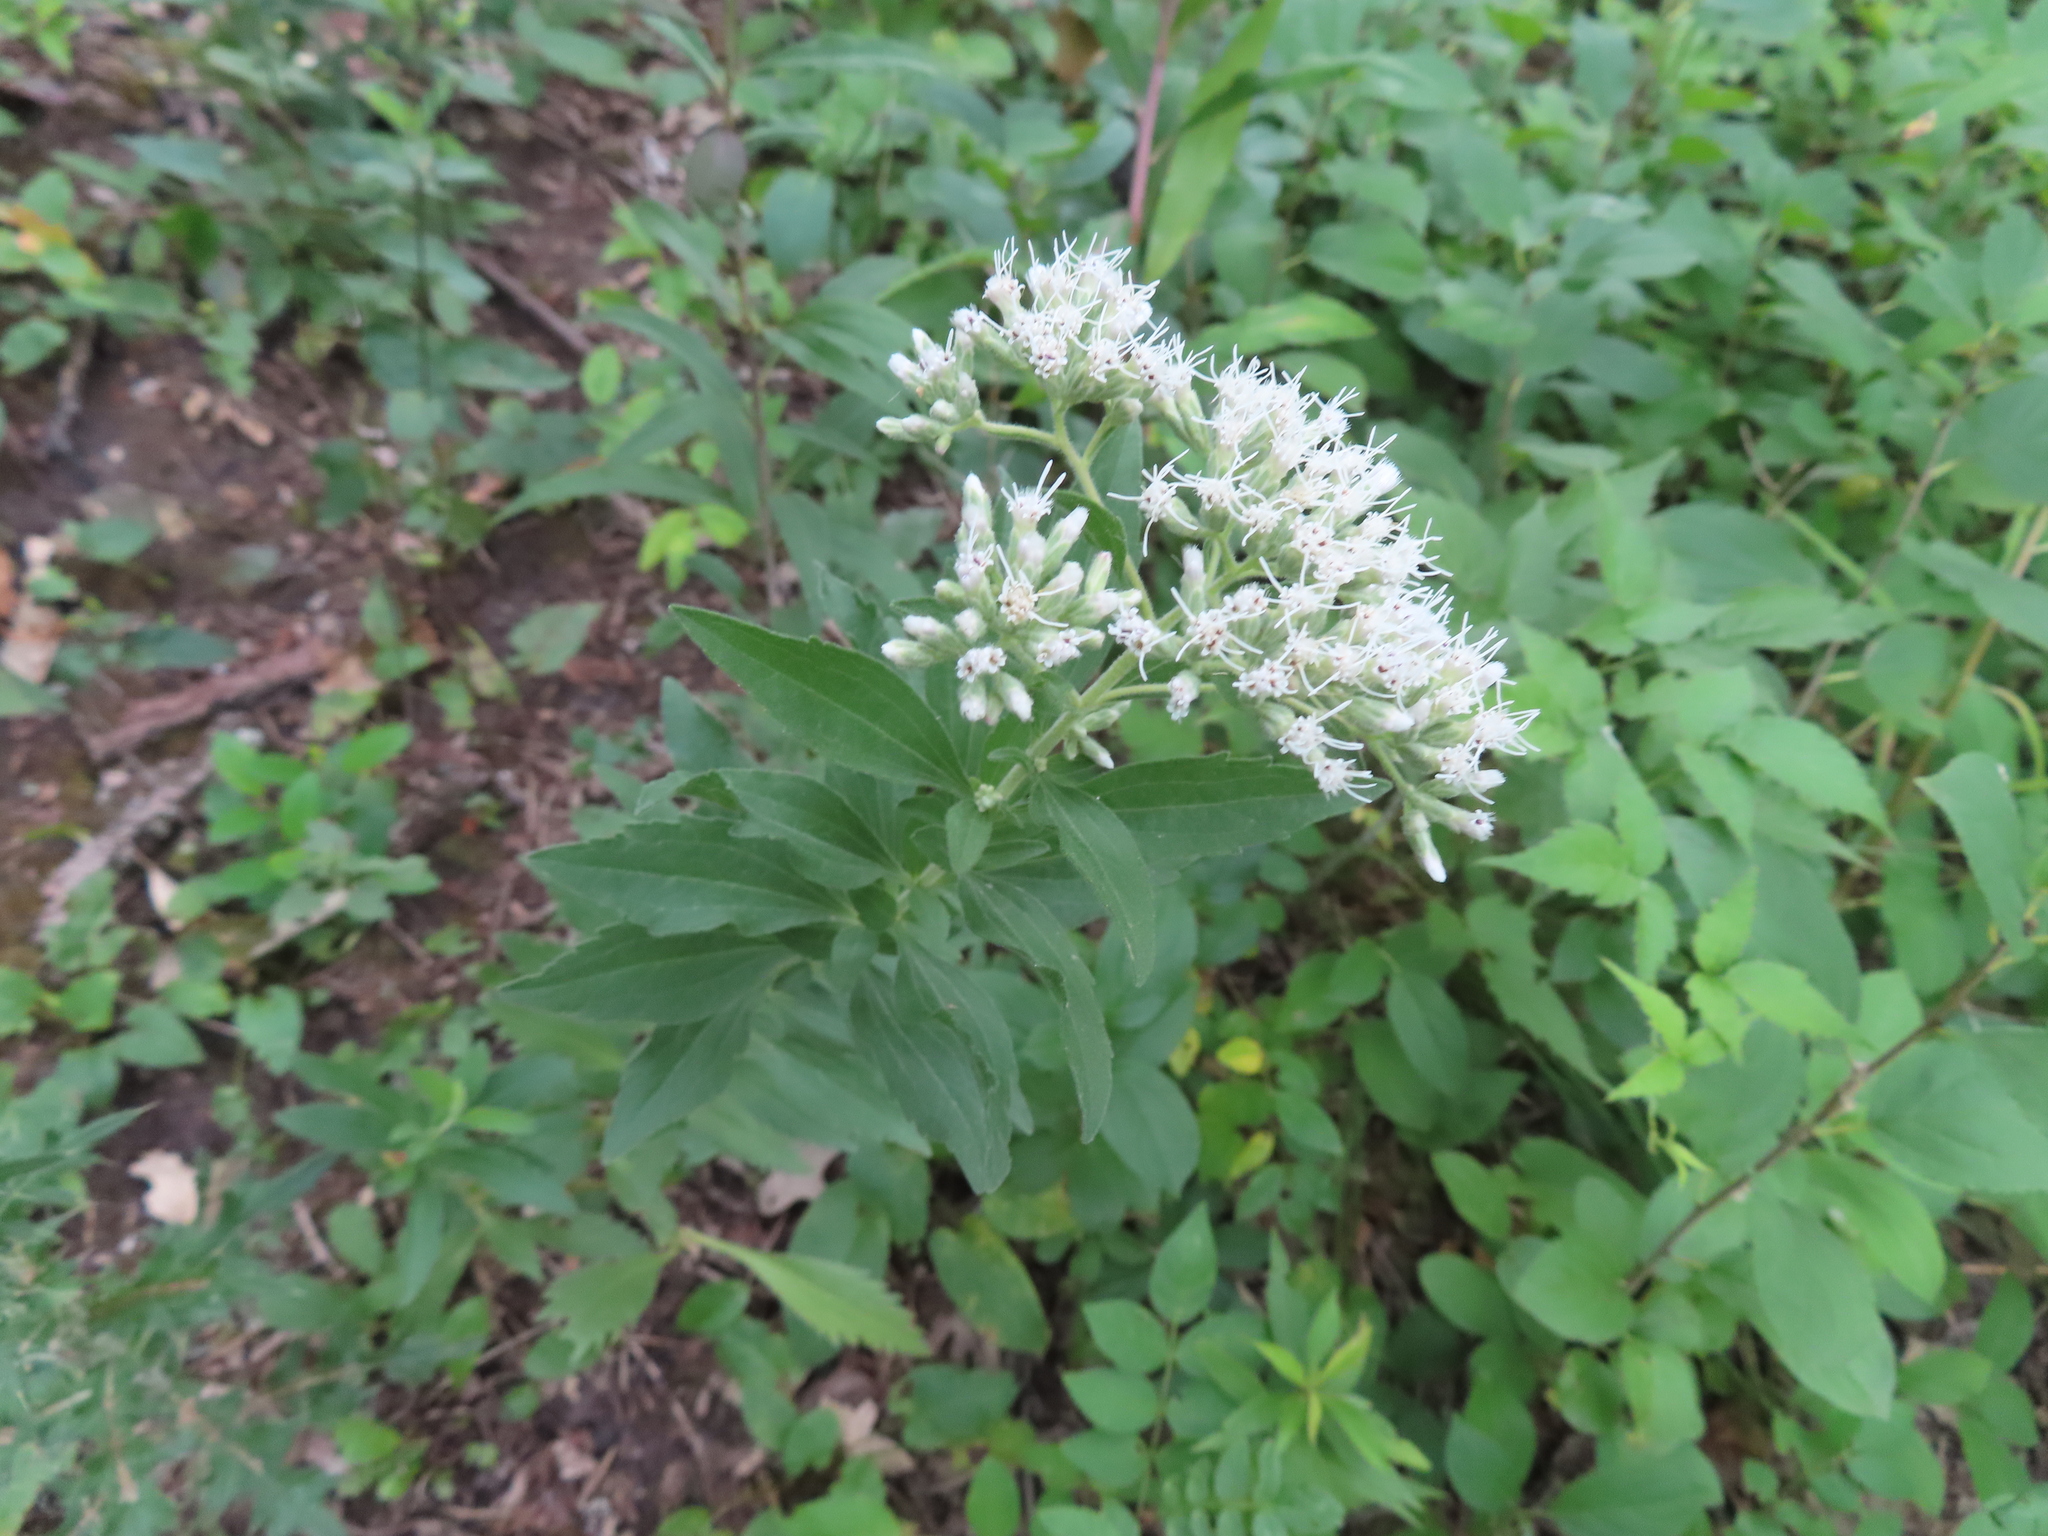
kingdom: Plantae
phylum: Tracheophyta
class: Magnoliopsida
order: Asterales
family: Asteraceae
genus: Eupatorium
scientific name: Eupatorium altissimum
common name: Tall thoroughwort
